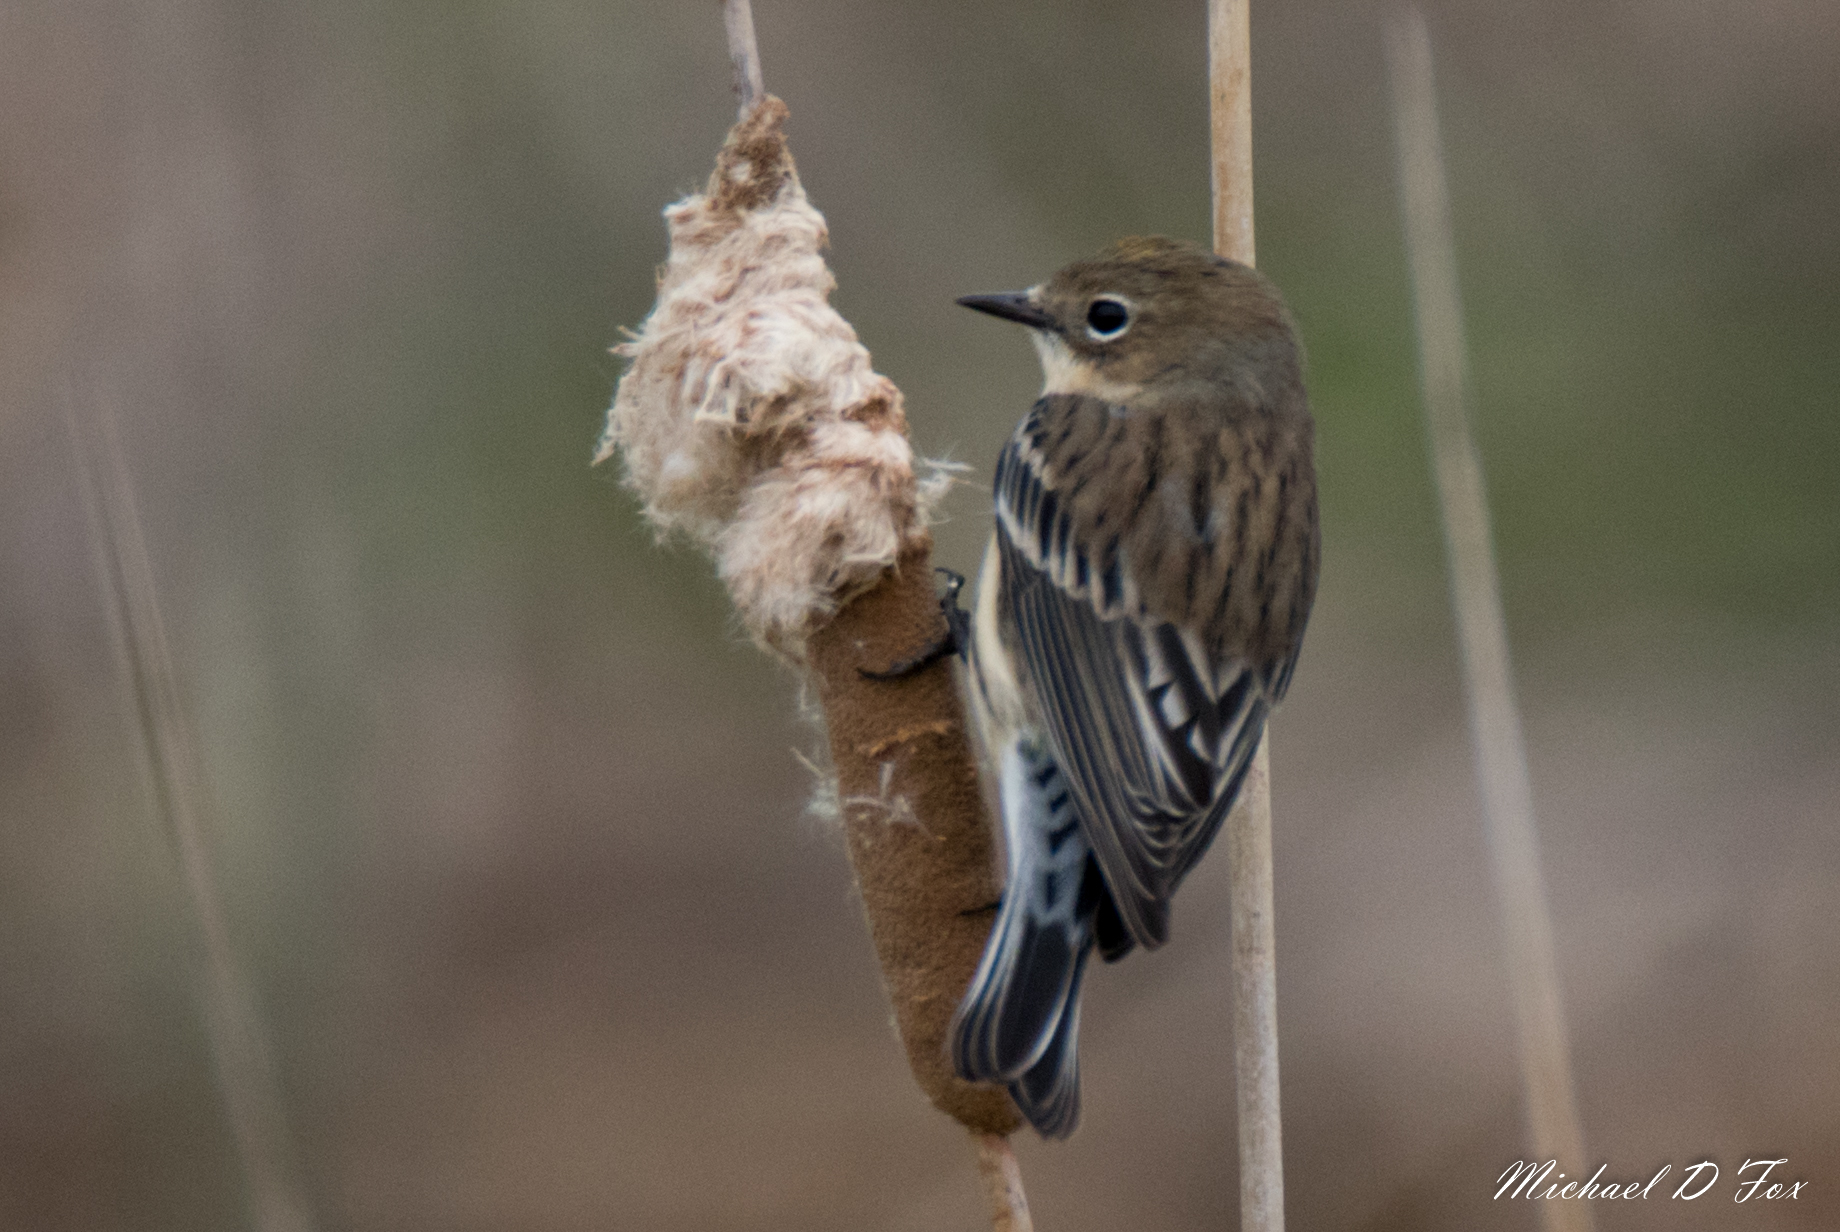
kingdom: Animalia
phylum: Chordata
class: Aves
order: Passeriformes
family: Parulidae
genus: Setophaga
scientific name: Setophaga coronata
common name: Myrtle warbler
